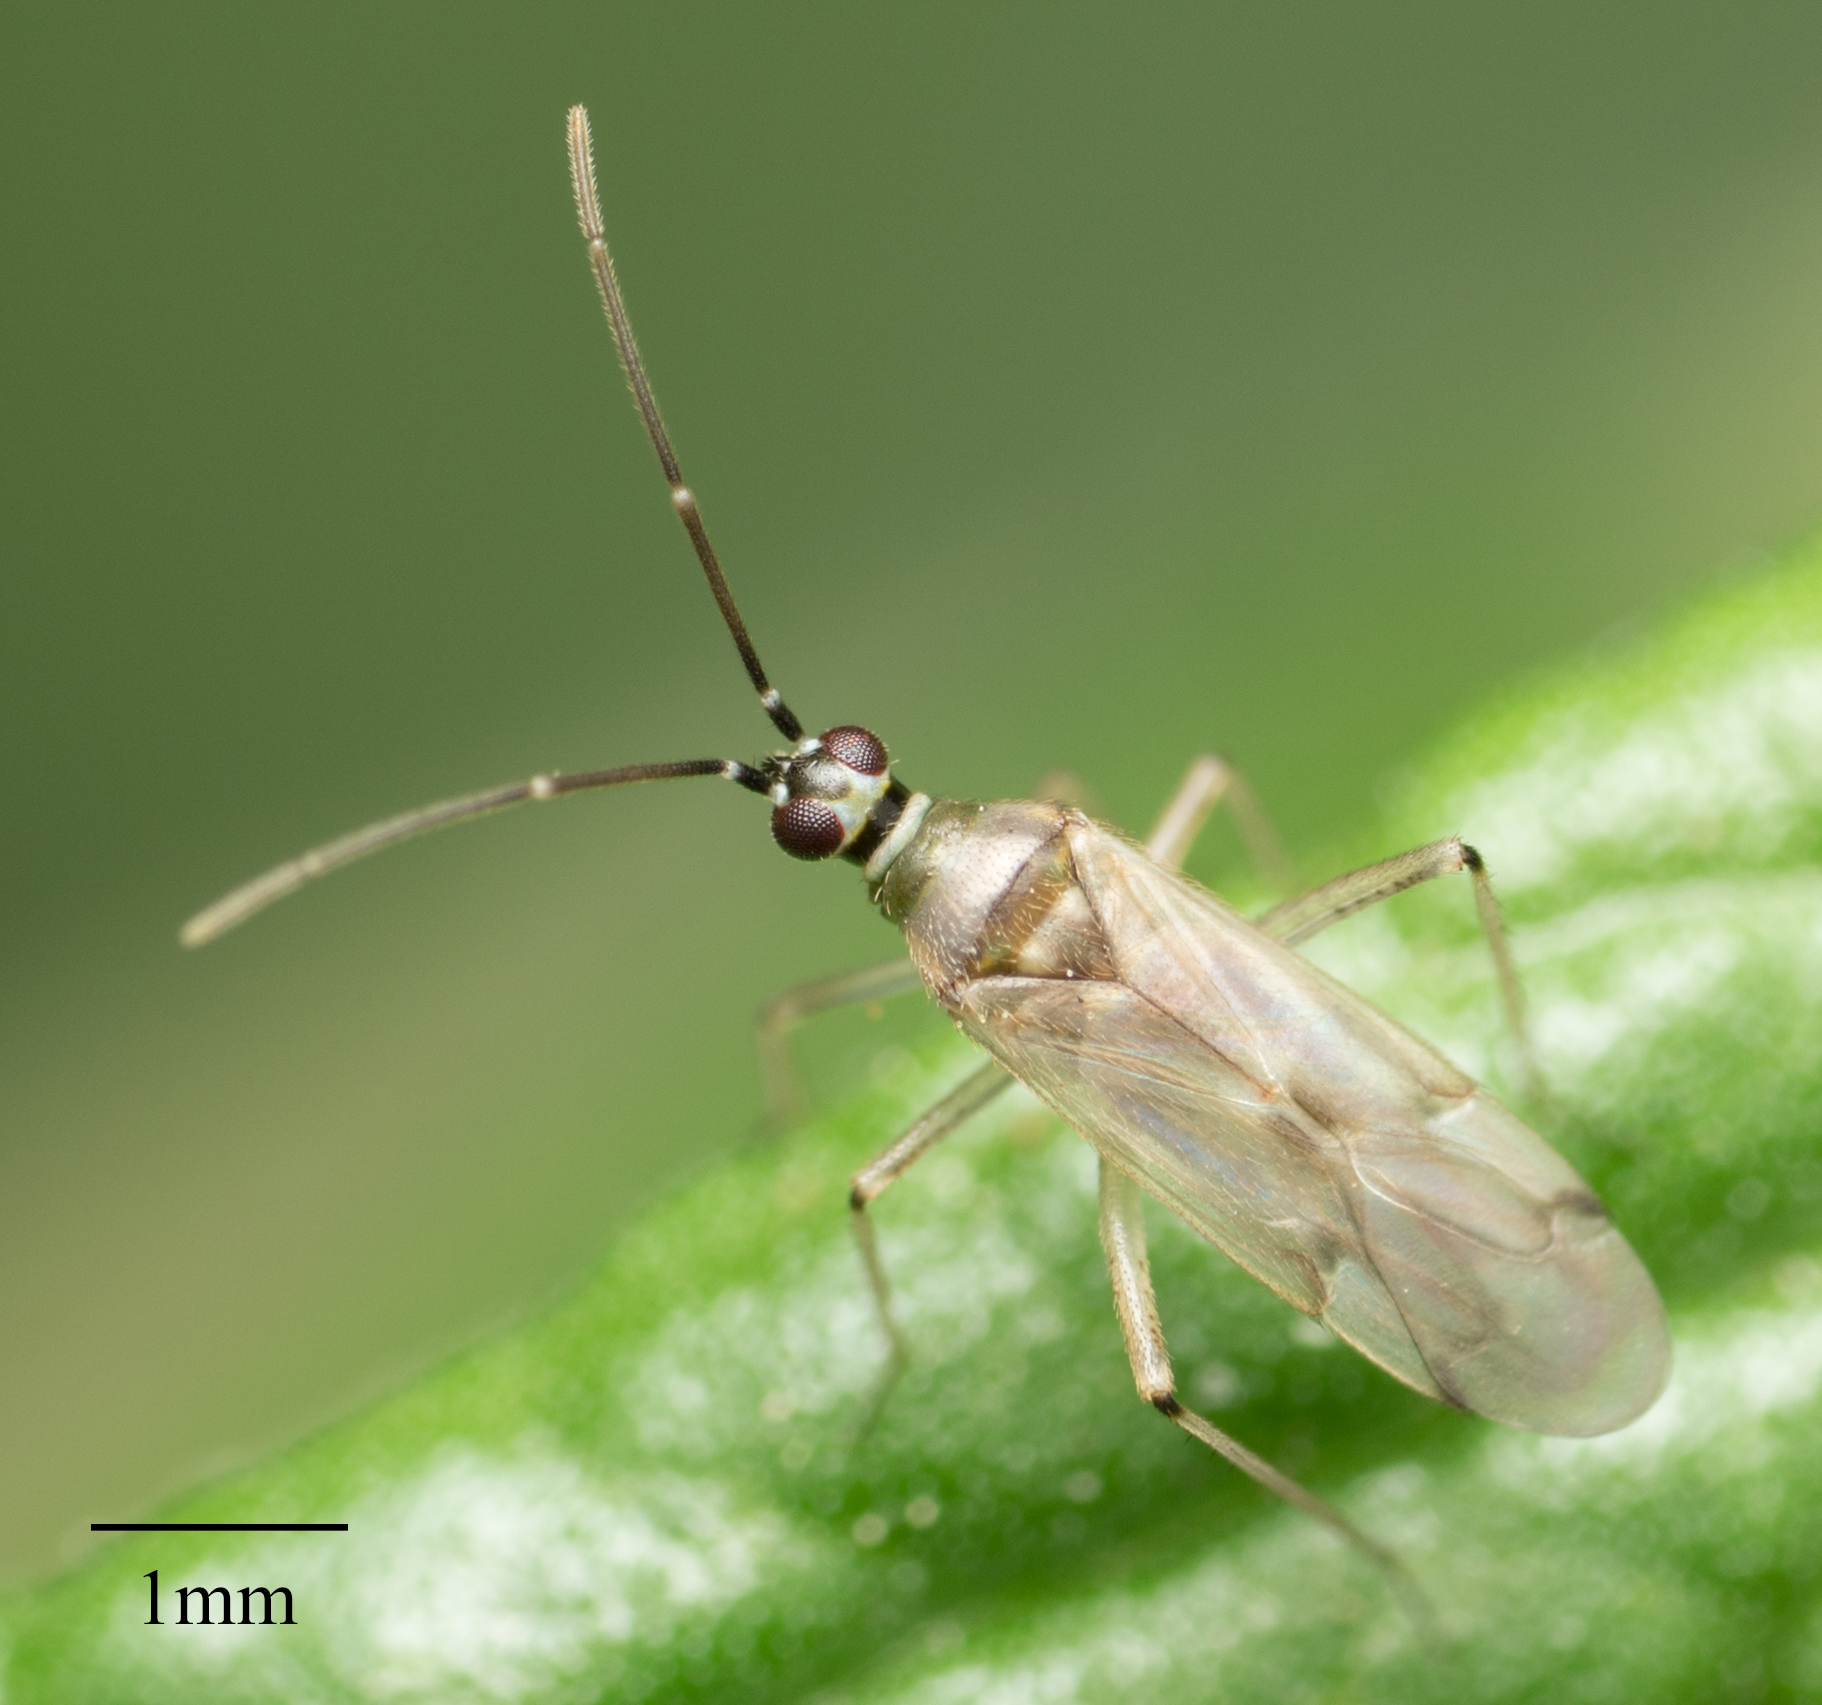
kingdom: Animalia
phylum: Arthropoda
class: Insecta
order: Hemiptera
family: Miridae
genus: Engytatus
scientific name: Engytatus modestus
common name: Tomato bug
